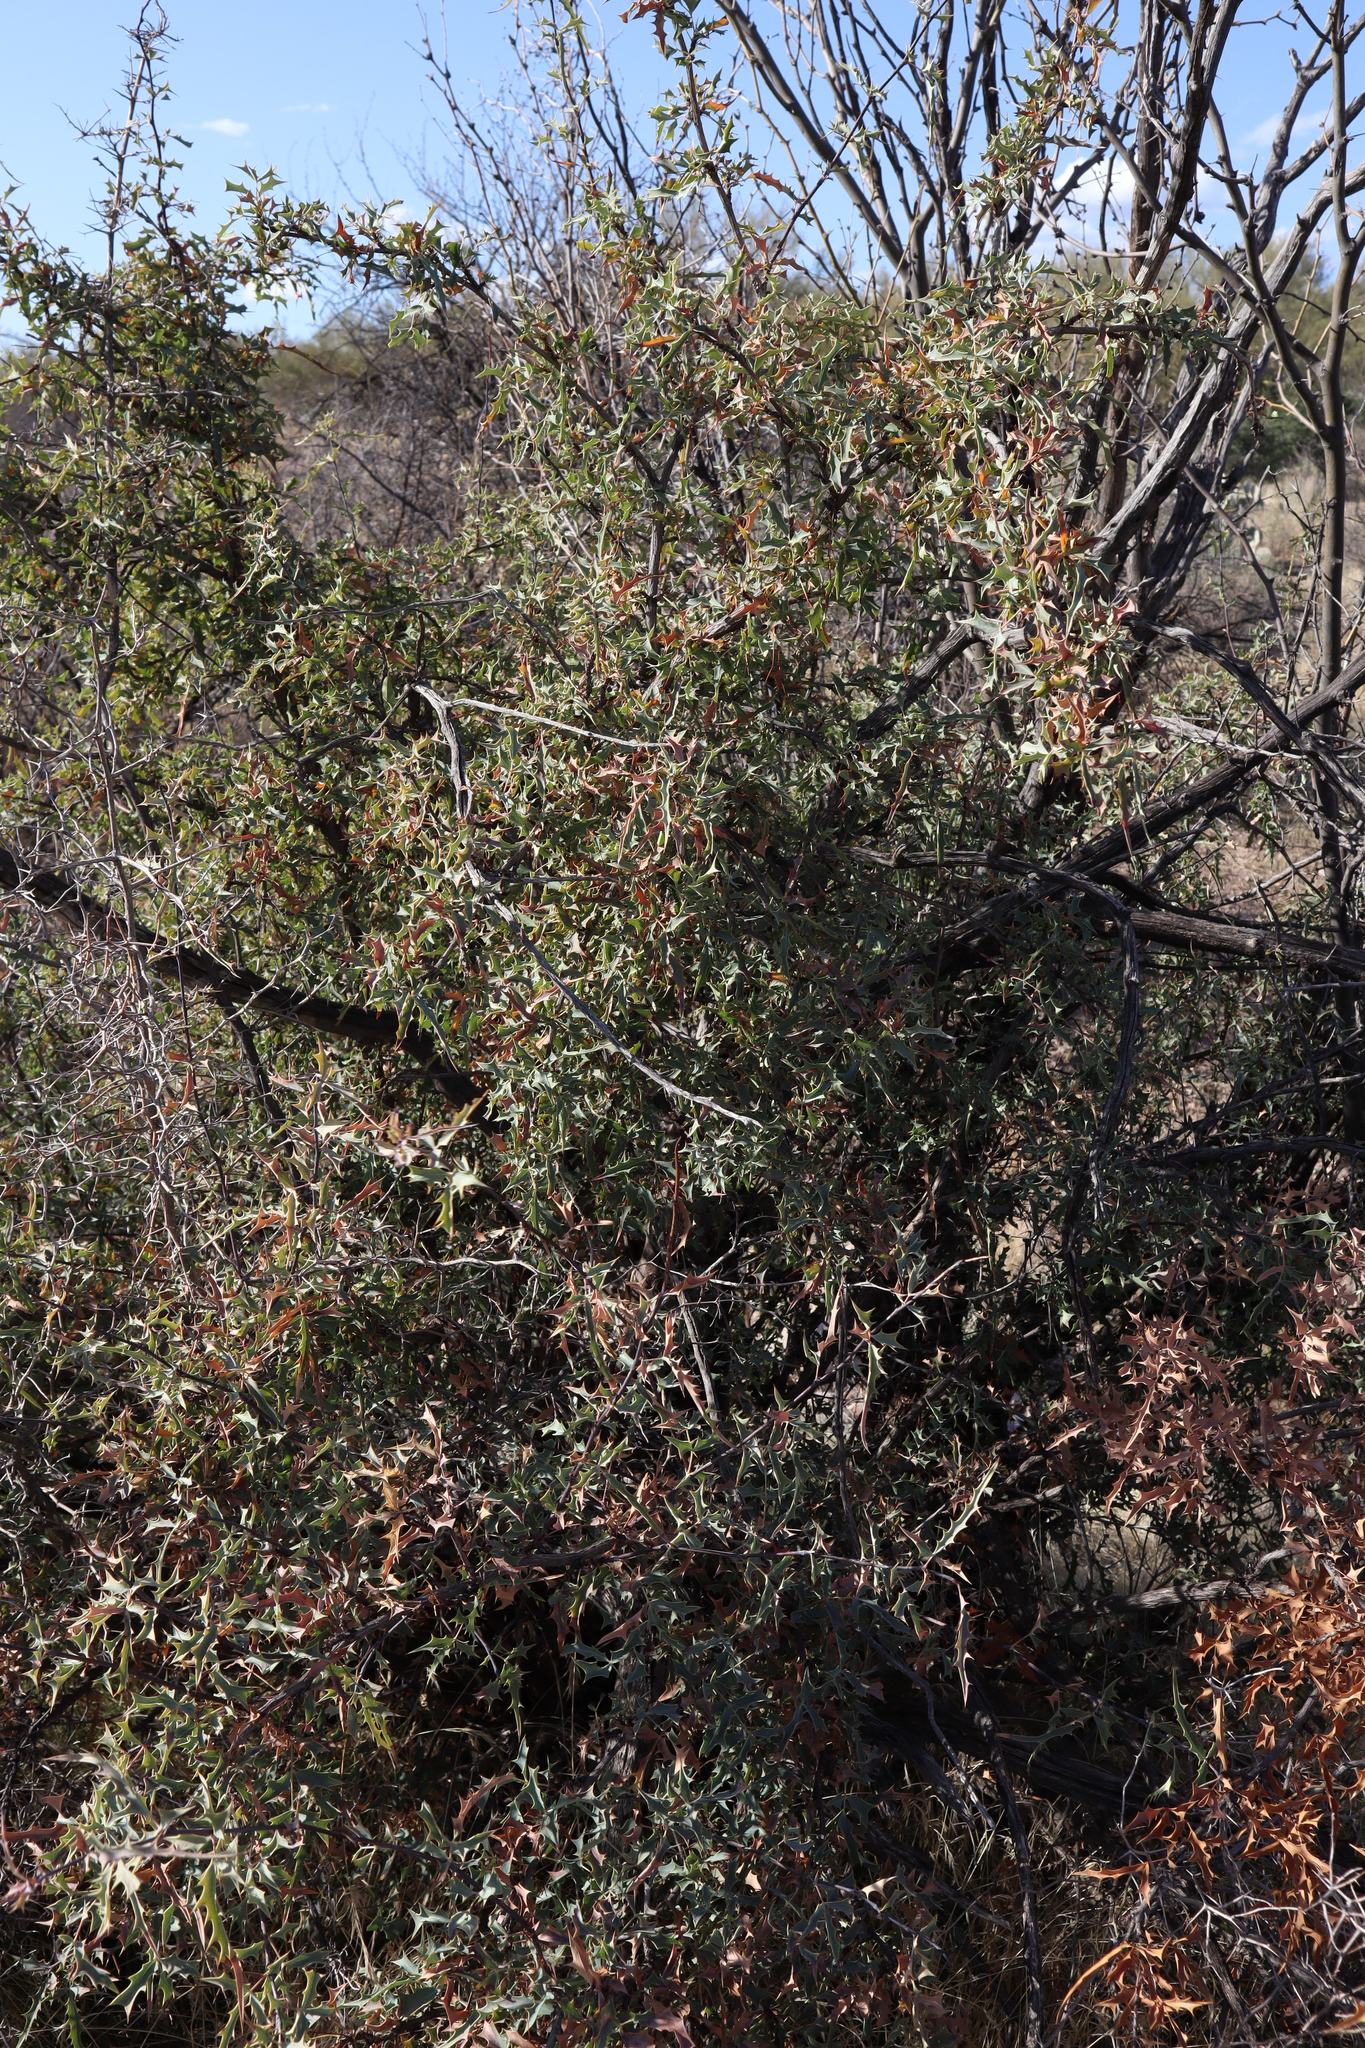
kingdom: Plantae
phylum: Tracheophyta
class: Magnoliopsida
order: Ranunculales
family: Berberidaceae
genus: Alloberberis
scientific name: Alloberberis haematocarpa
